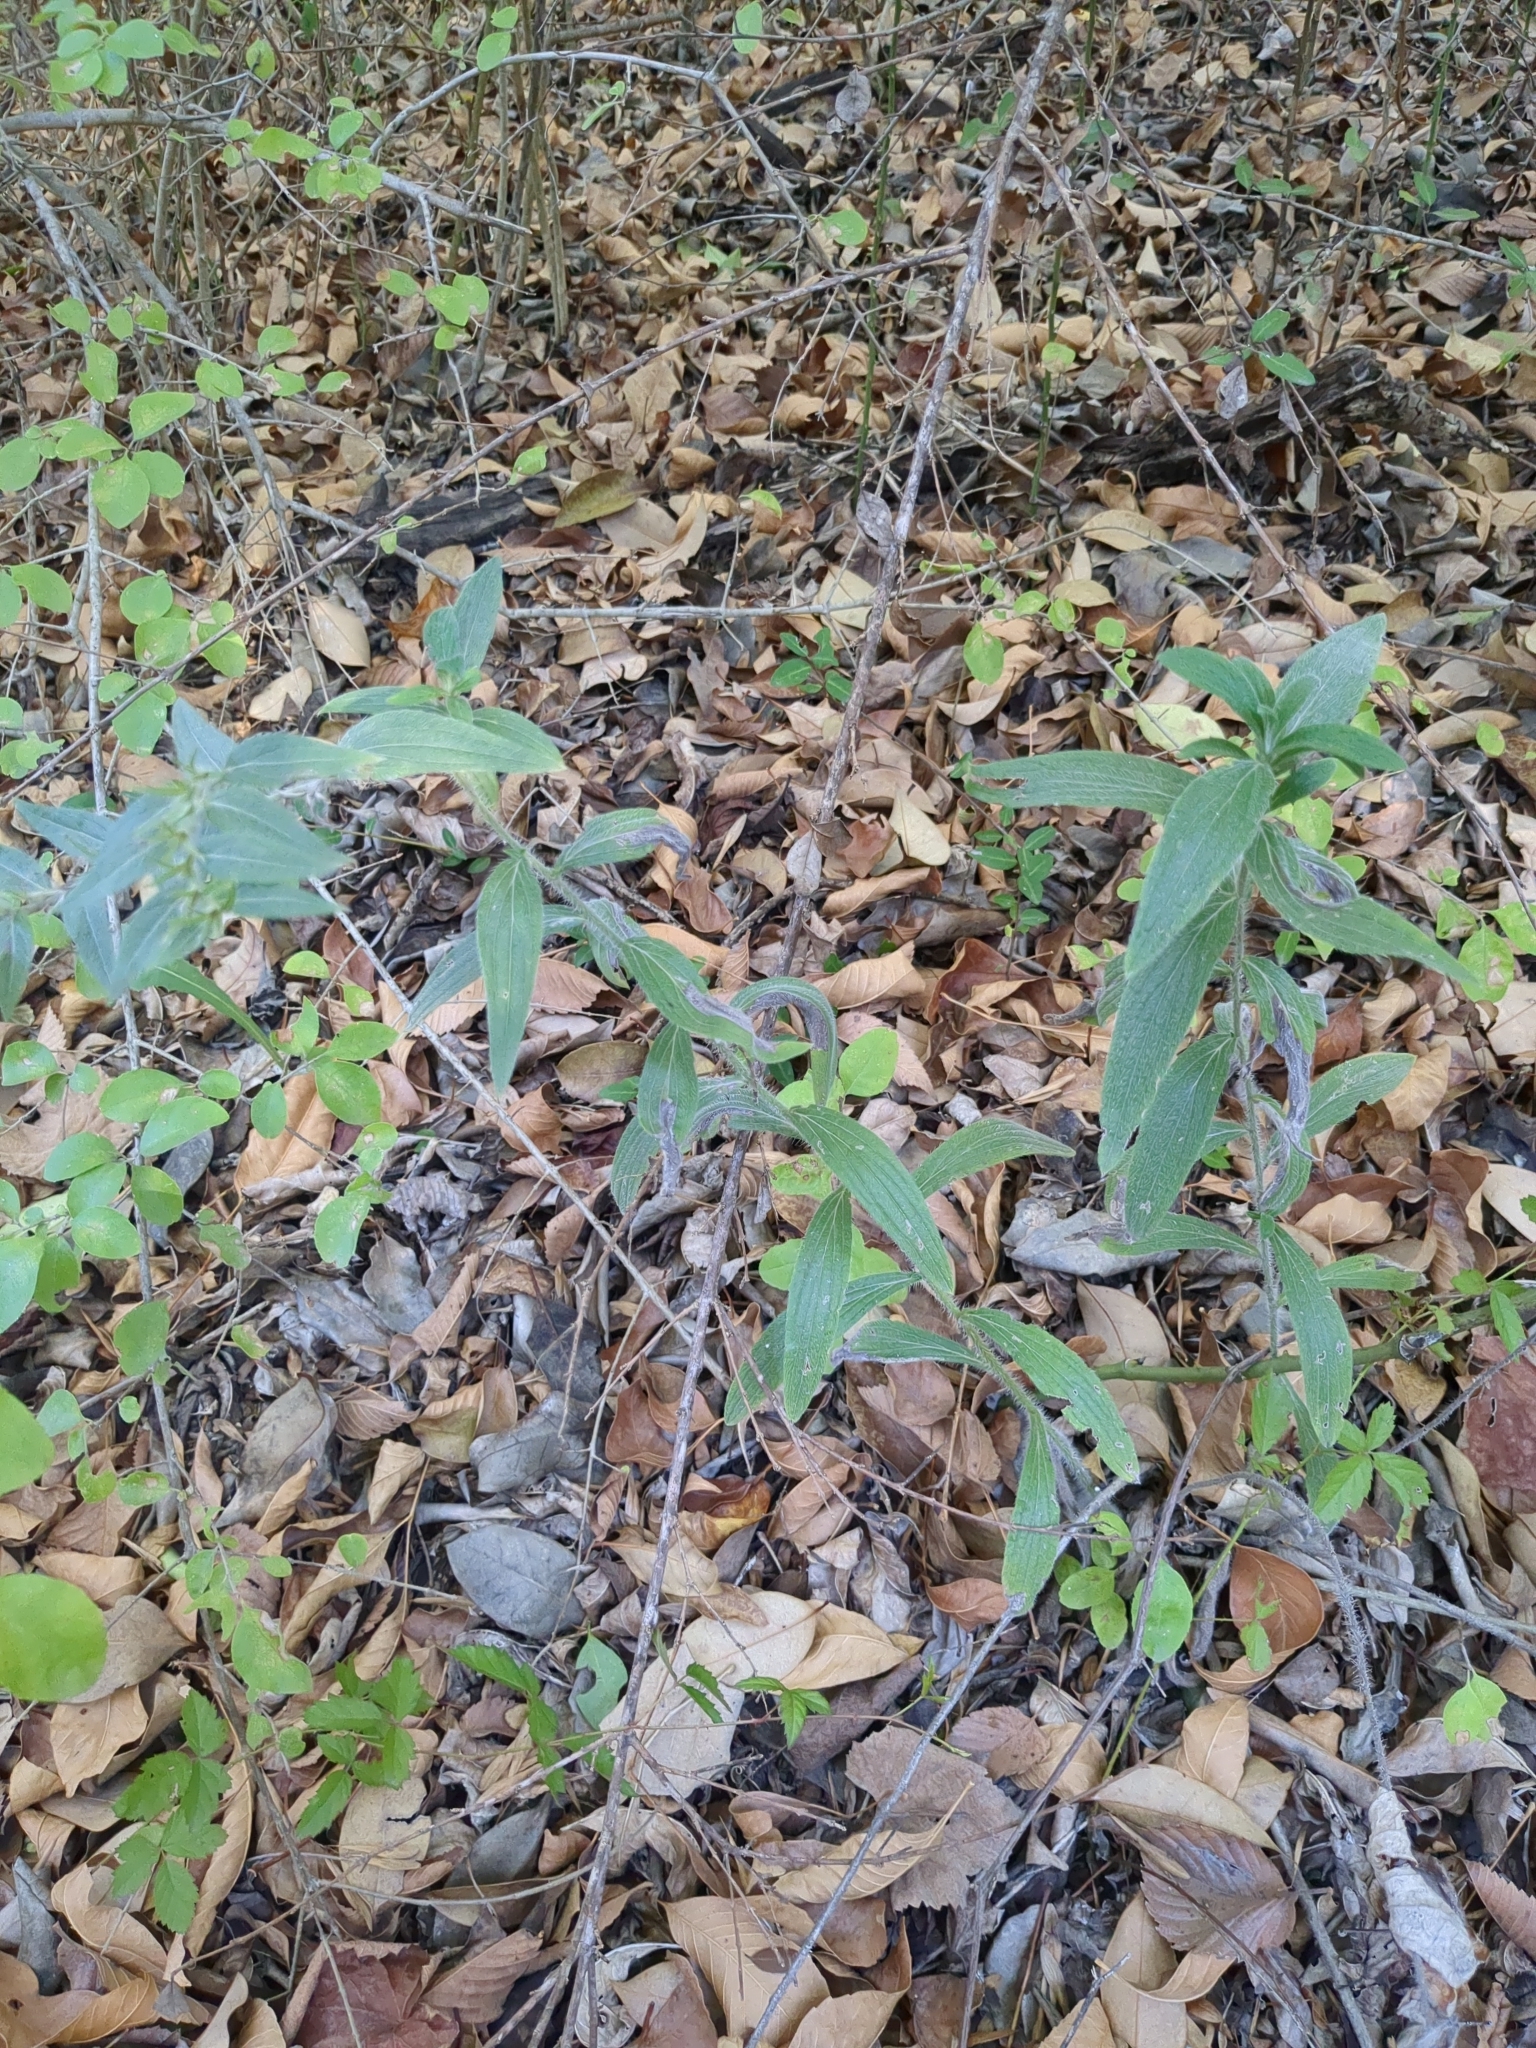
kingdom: Plantae
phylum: Tracheophyta
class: Magnoliopsida
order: Boraginales
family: Boraginaceae
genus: Lithospermum
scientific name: Lithospermum caroliniense
